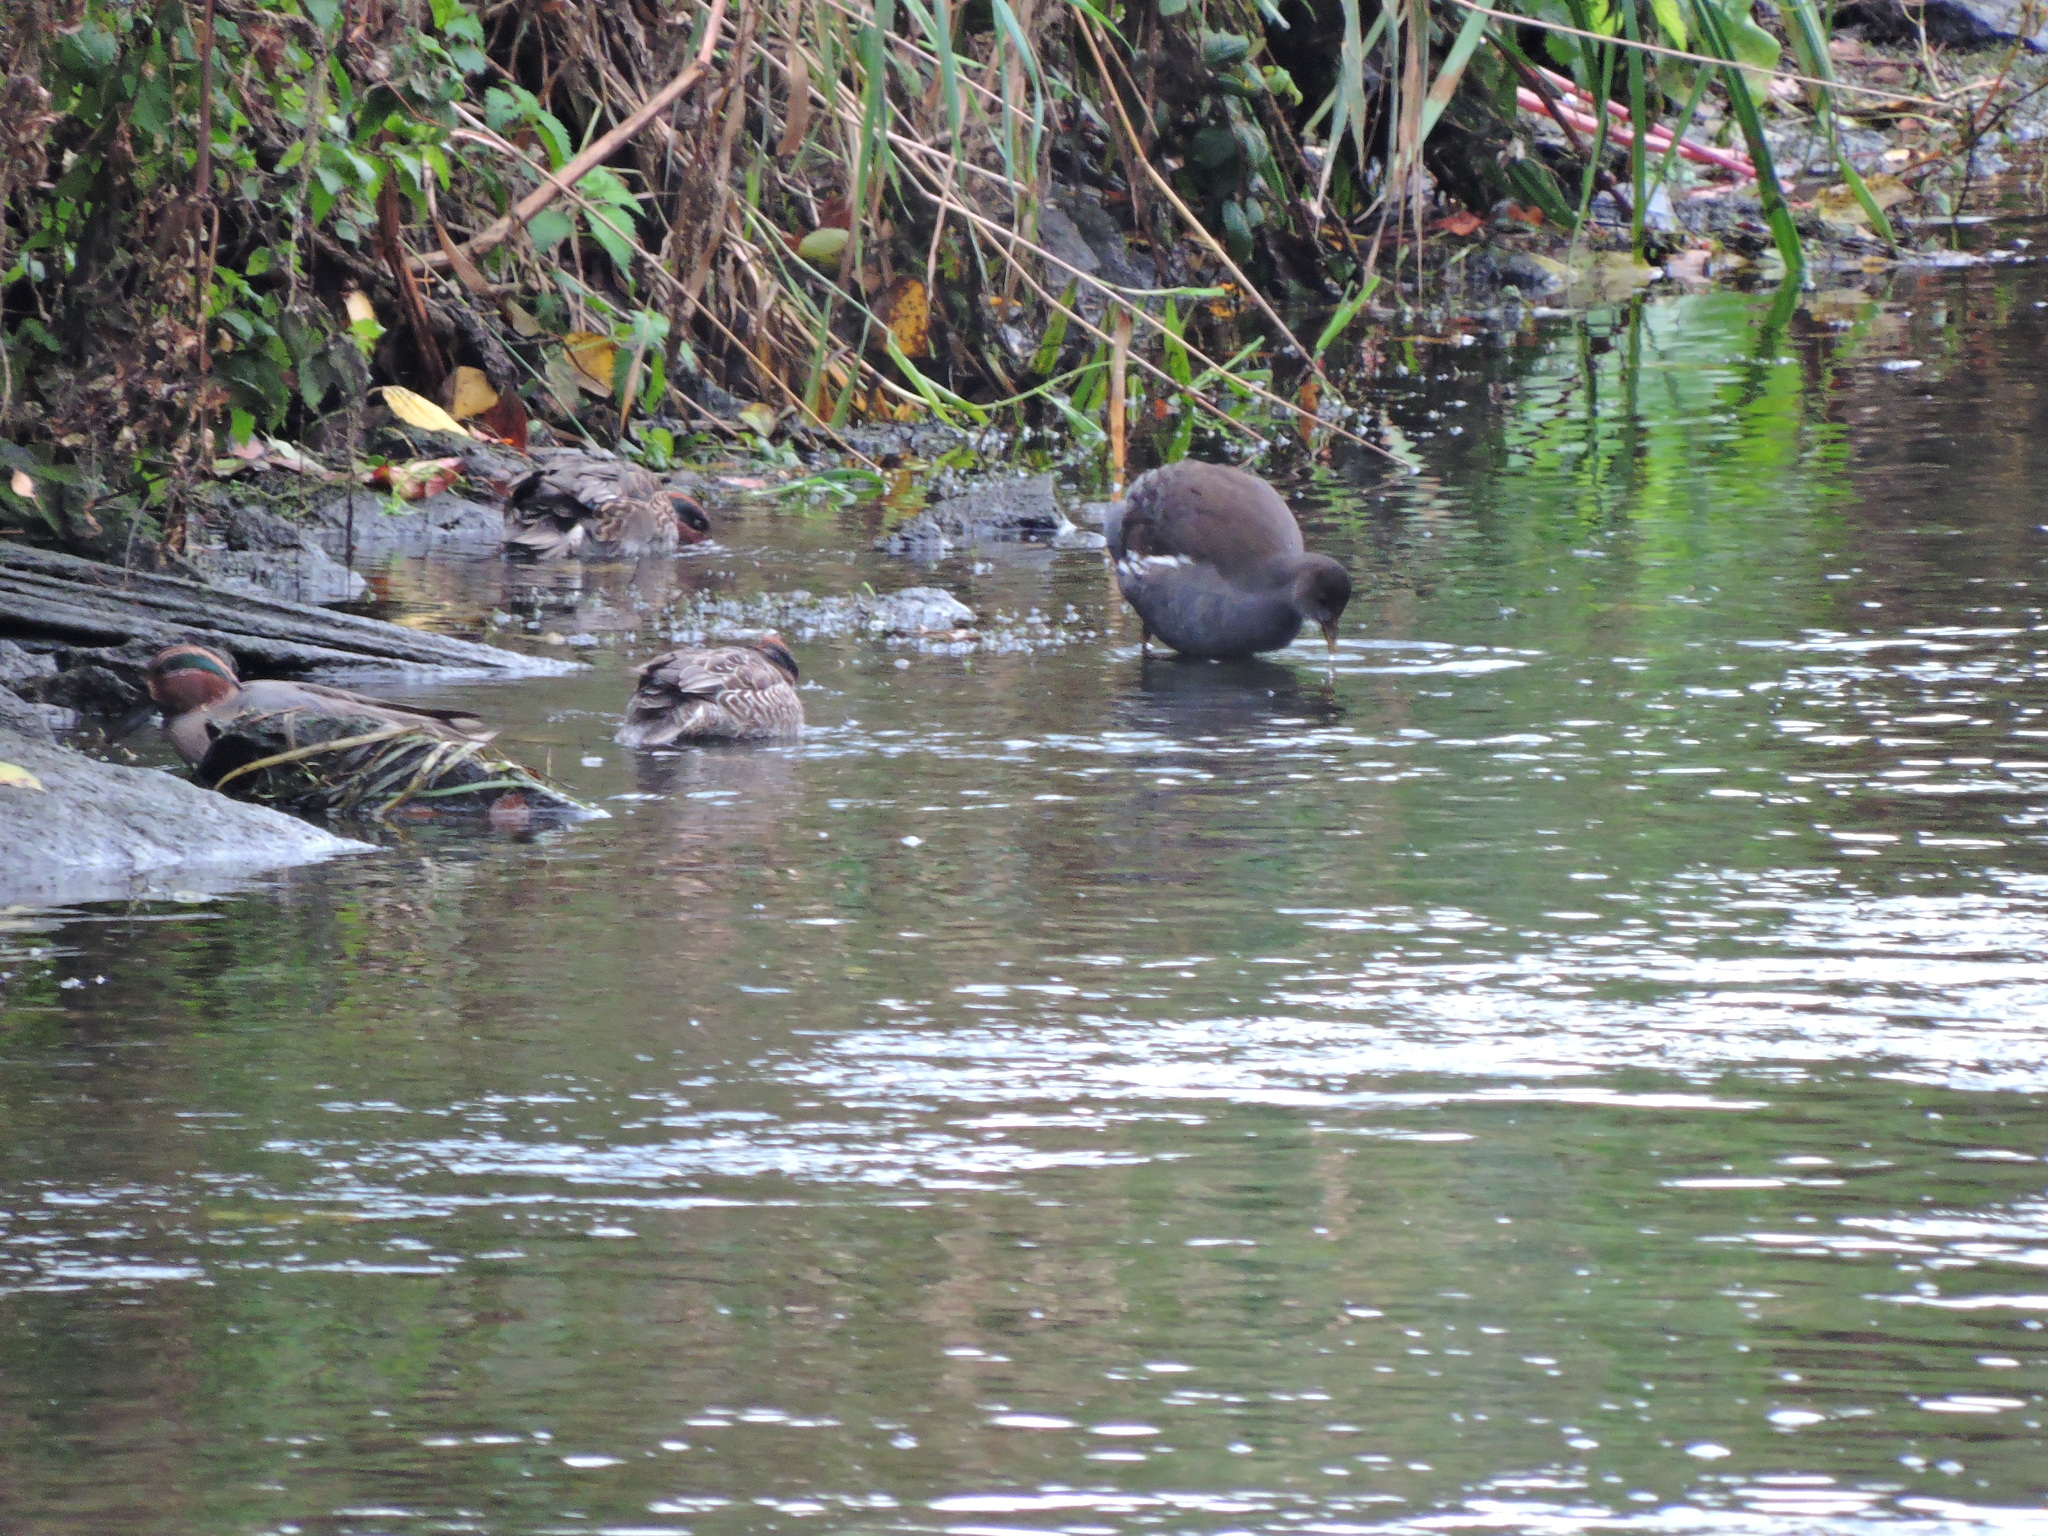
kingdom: Animalia
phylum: Chordata
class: Aves
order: Anseriformes
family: Anatidae
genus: Anas
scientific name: Anas crecca
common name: Eurasian teal
